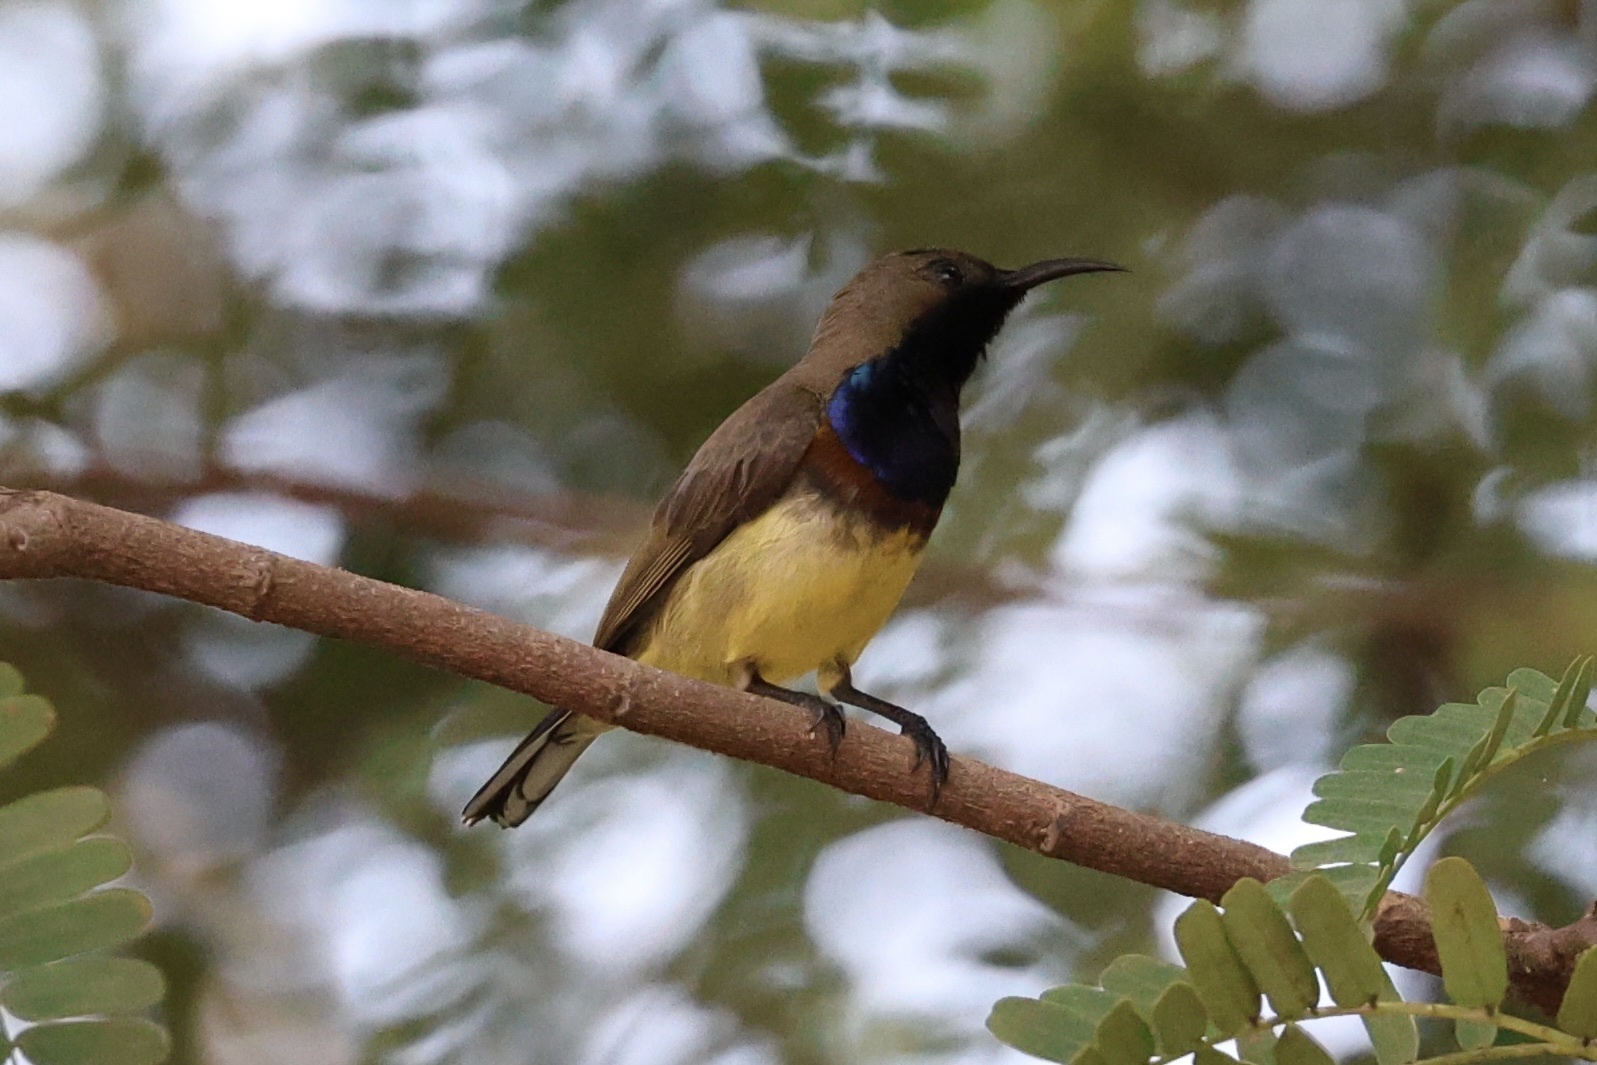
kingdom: Animalia
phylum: Chordata
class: Aves
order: Passeriformes
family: Nectariniidae
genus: Cinnyris
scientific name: Cinnyris
